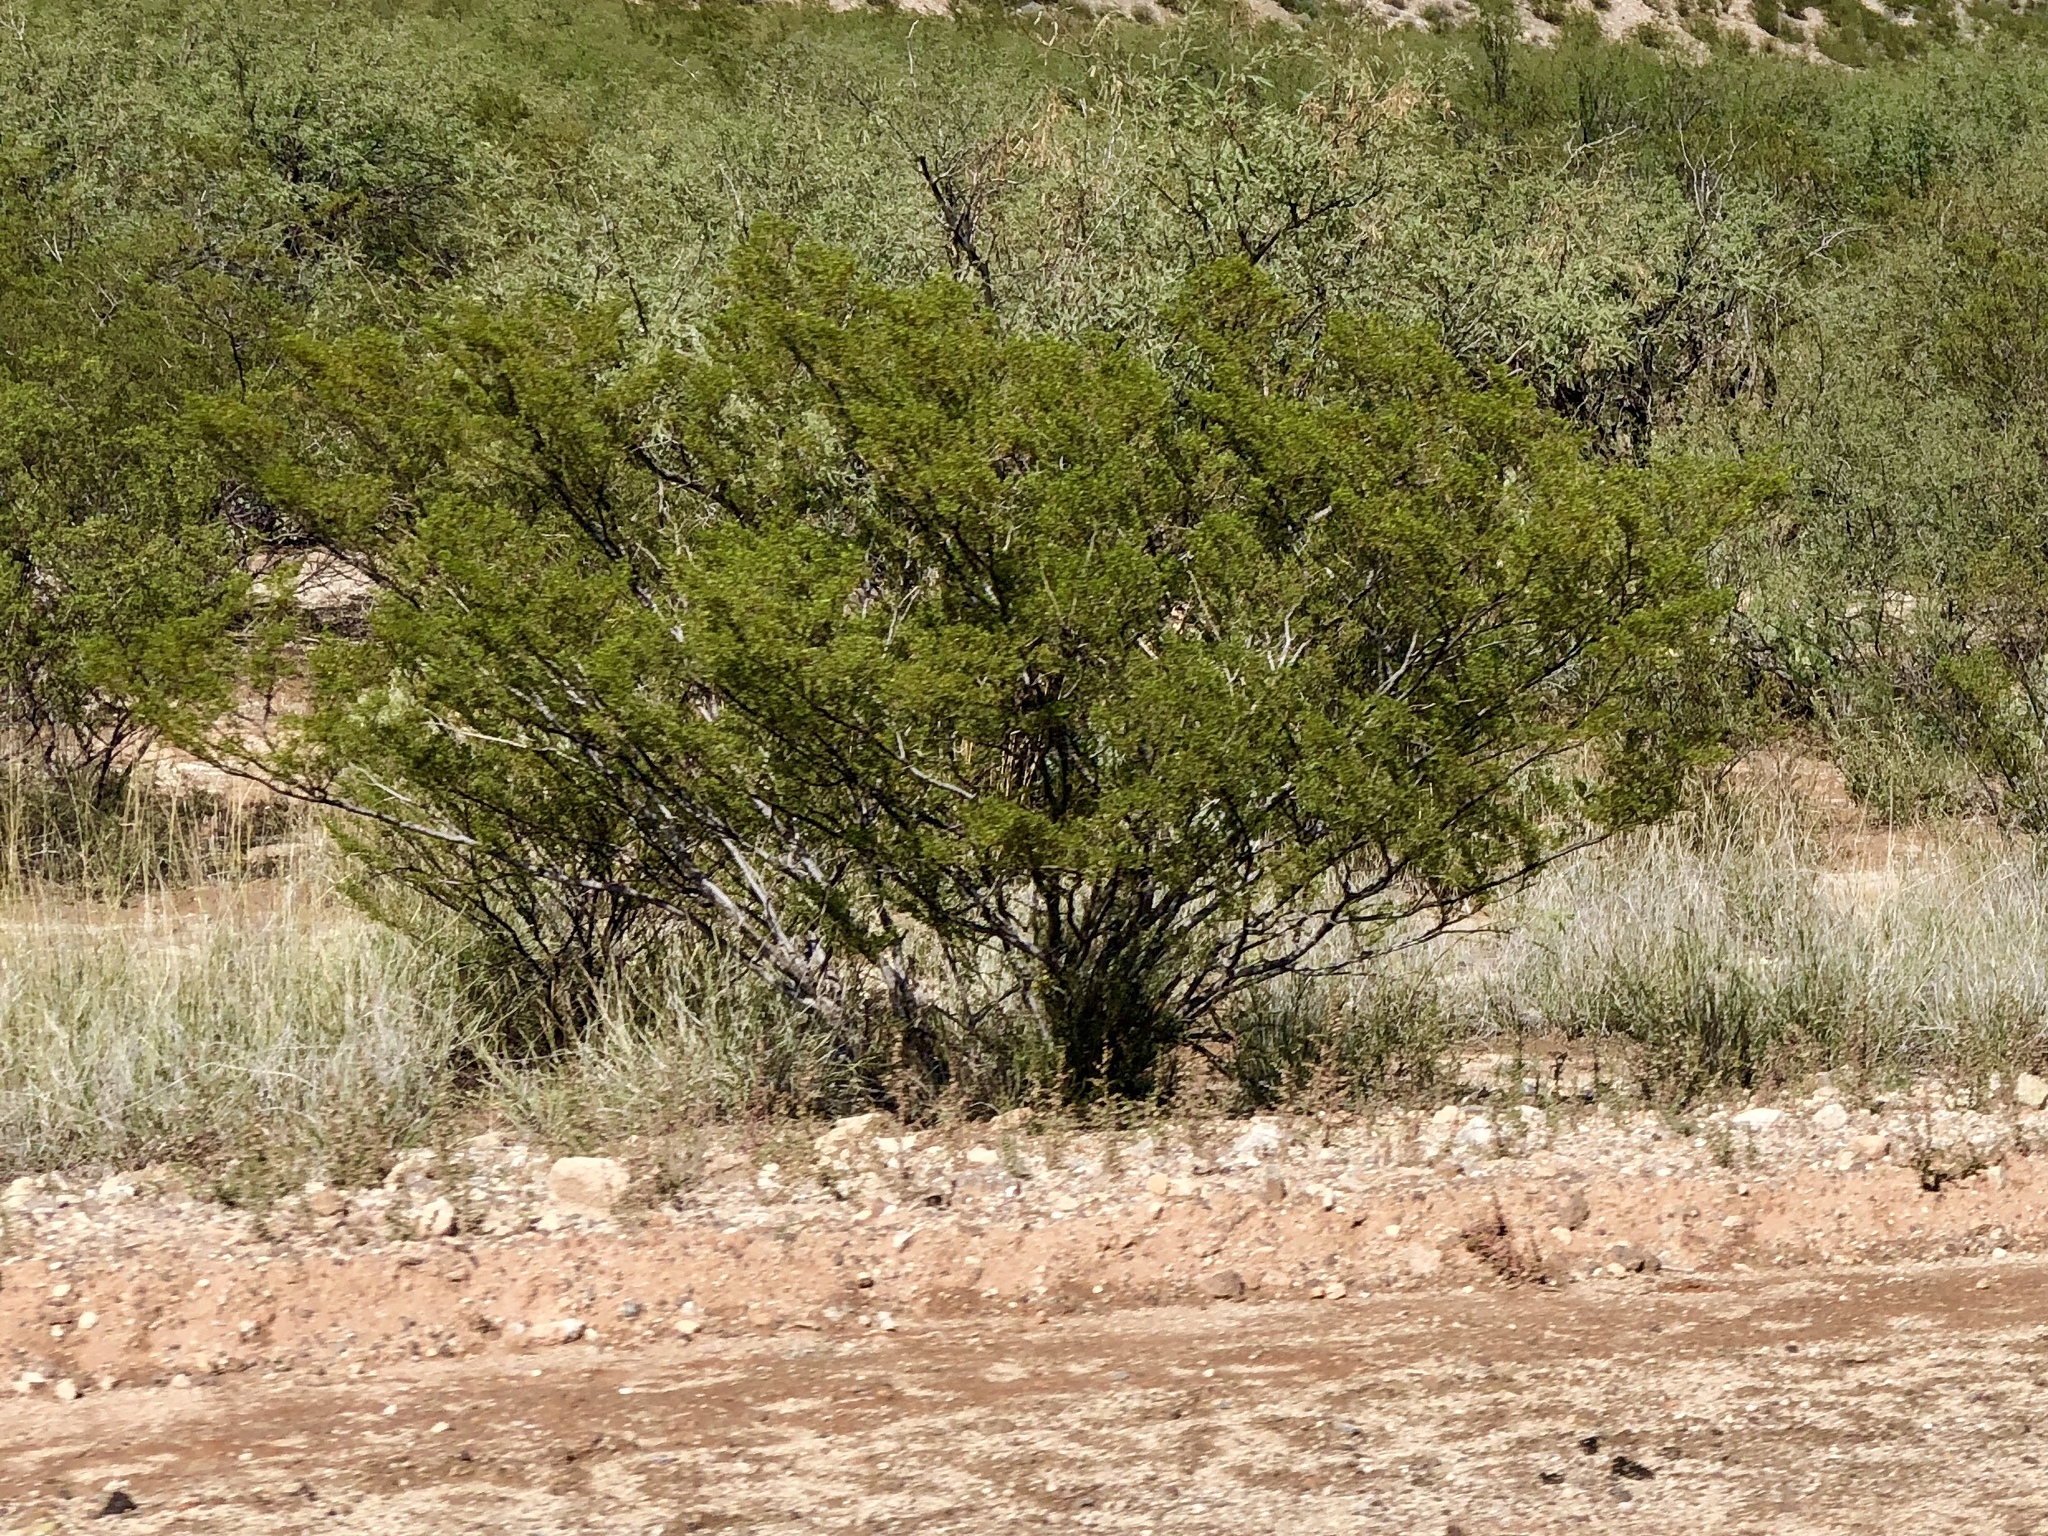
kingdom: Plantae
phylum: Tracheophyta
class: Magnoliopsida
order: Zygophyllales
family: Zygophyllaceae
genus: Larrea
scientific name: Larrea tridentata
